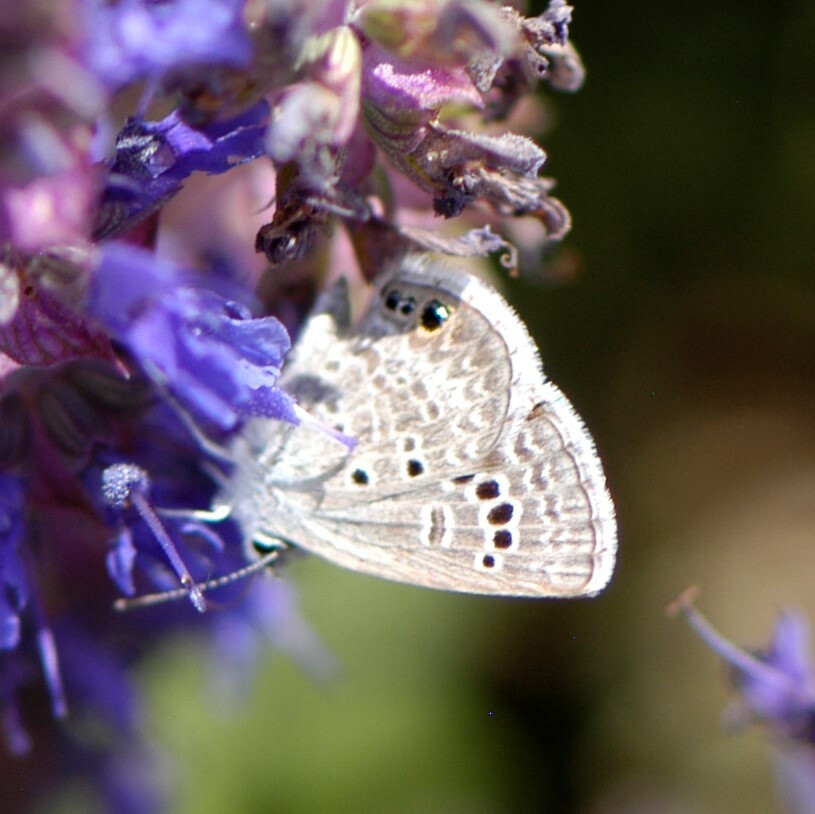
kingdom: Animalia
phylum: Arthropoda
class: Insecta
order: Lepidoptera
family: Lycaenidae
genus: Echinargus
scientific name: Echinargus isola
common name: Reakirt's blue
